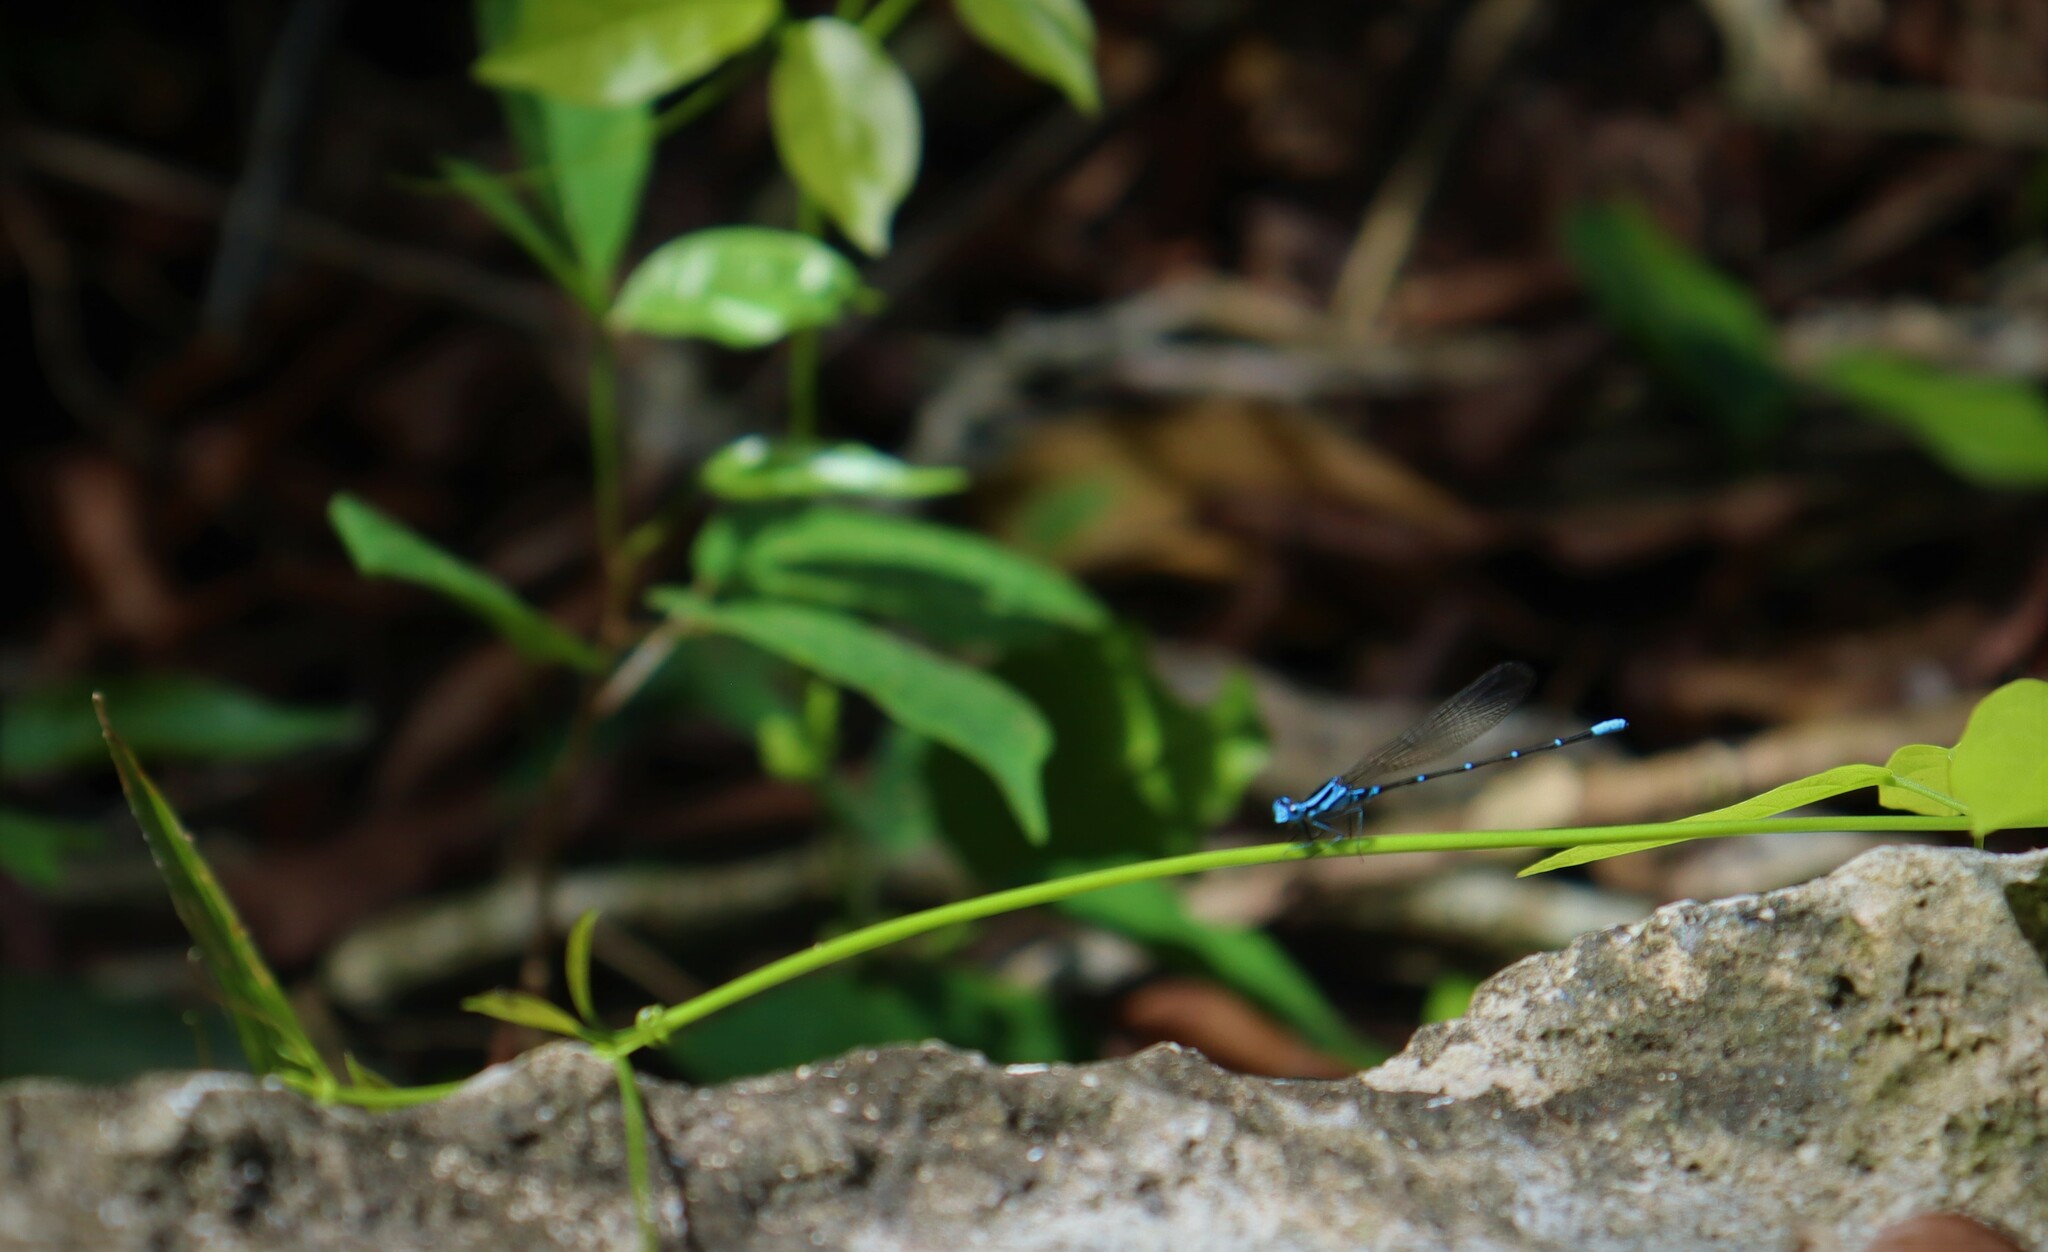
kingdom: Animalia
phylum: Arthropoda
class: Insecta
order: Odonata
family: Coenagrionidae
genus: Argia
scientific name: Argia gaumeri
